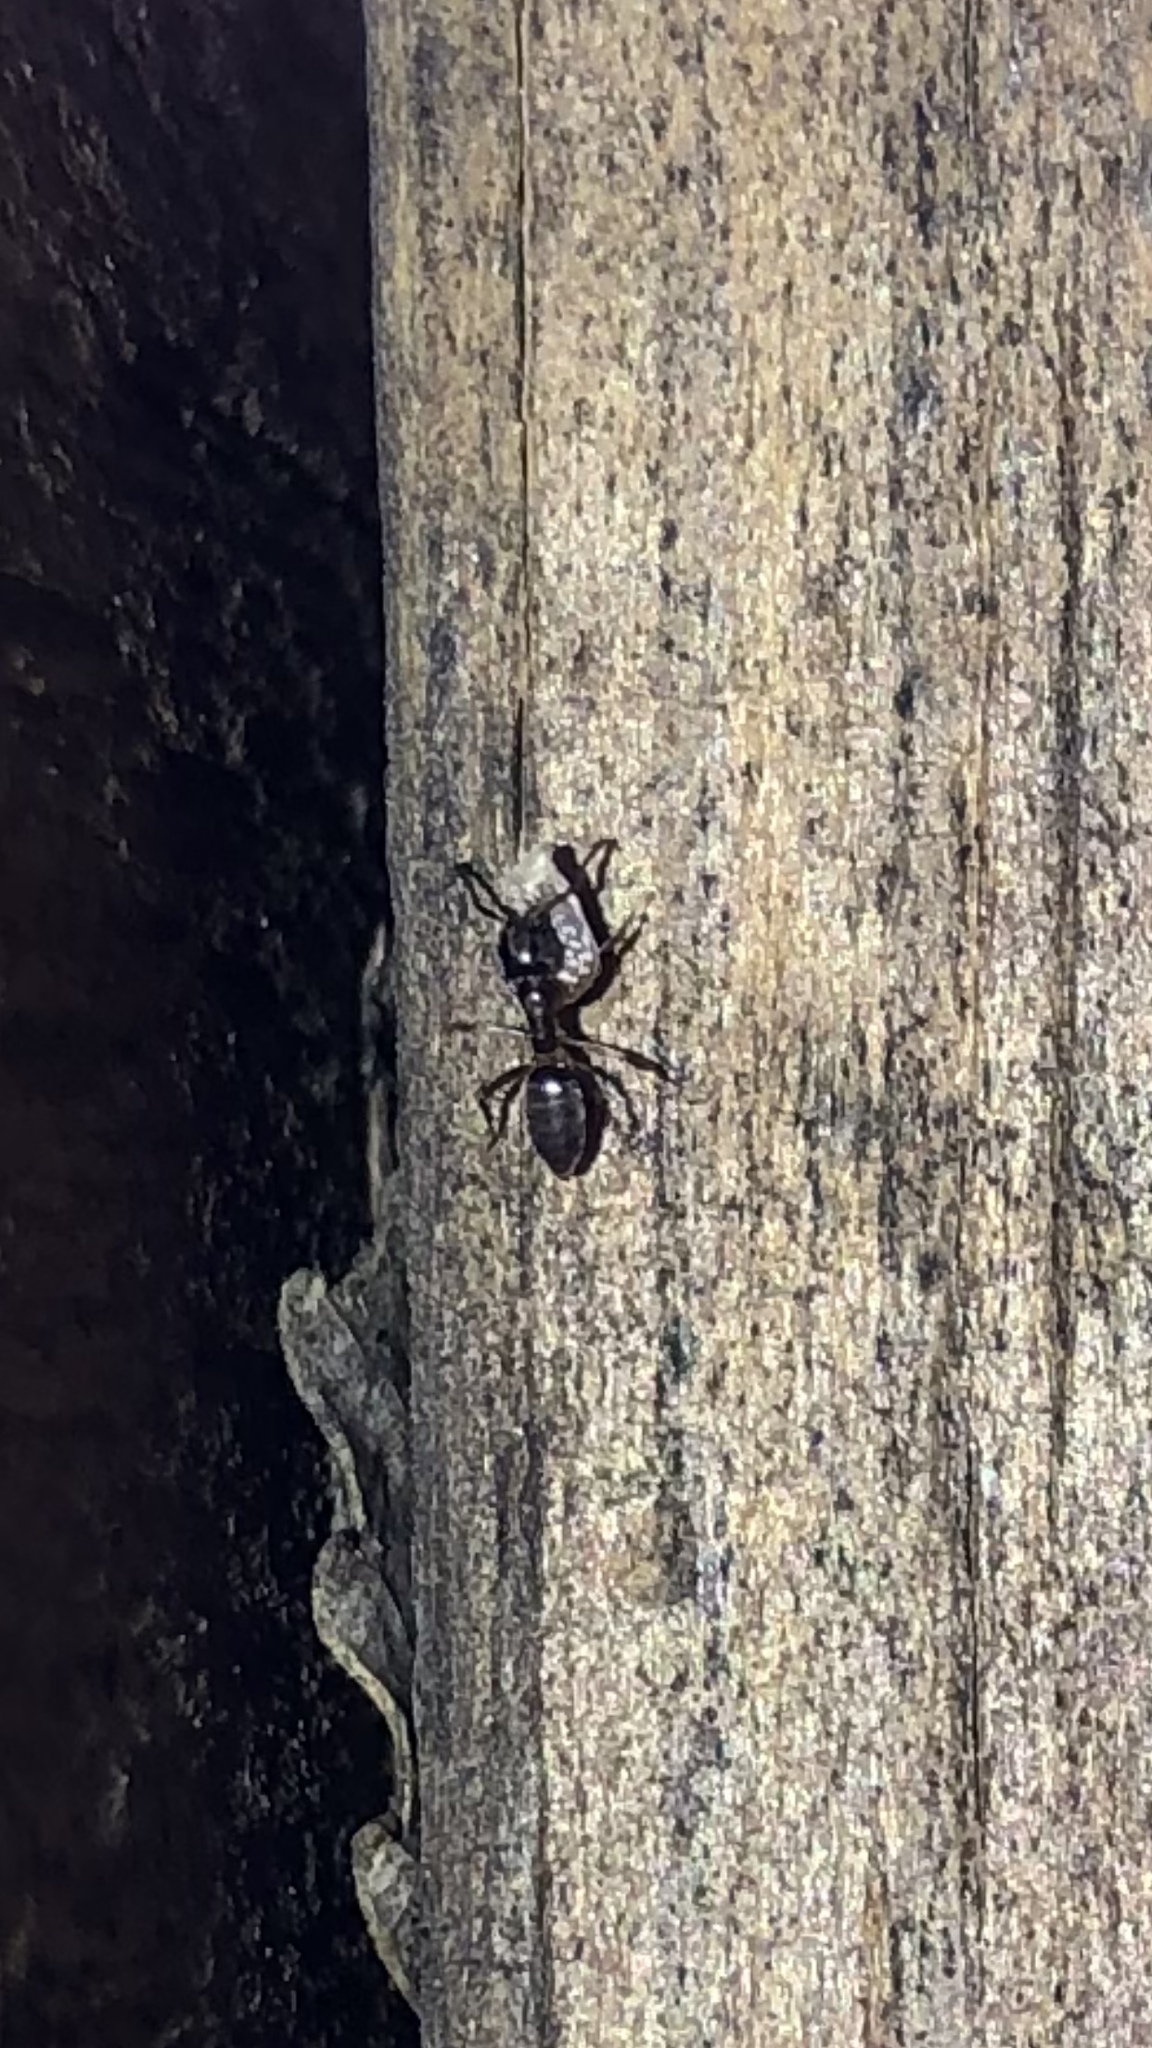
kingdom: Animalia
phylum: Arthropoda
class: Insecta
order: Hymenoptera
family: Formicidae
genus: Tapinoma
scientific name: Tapinoma sessile
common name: Odorous house ant
